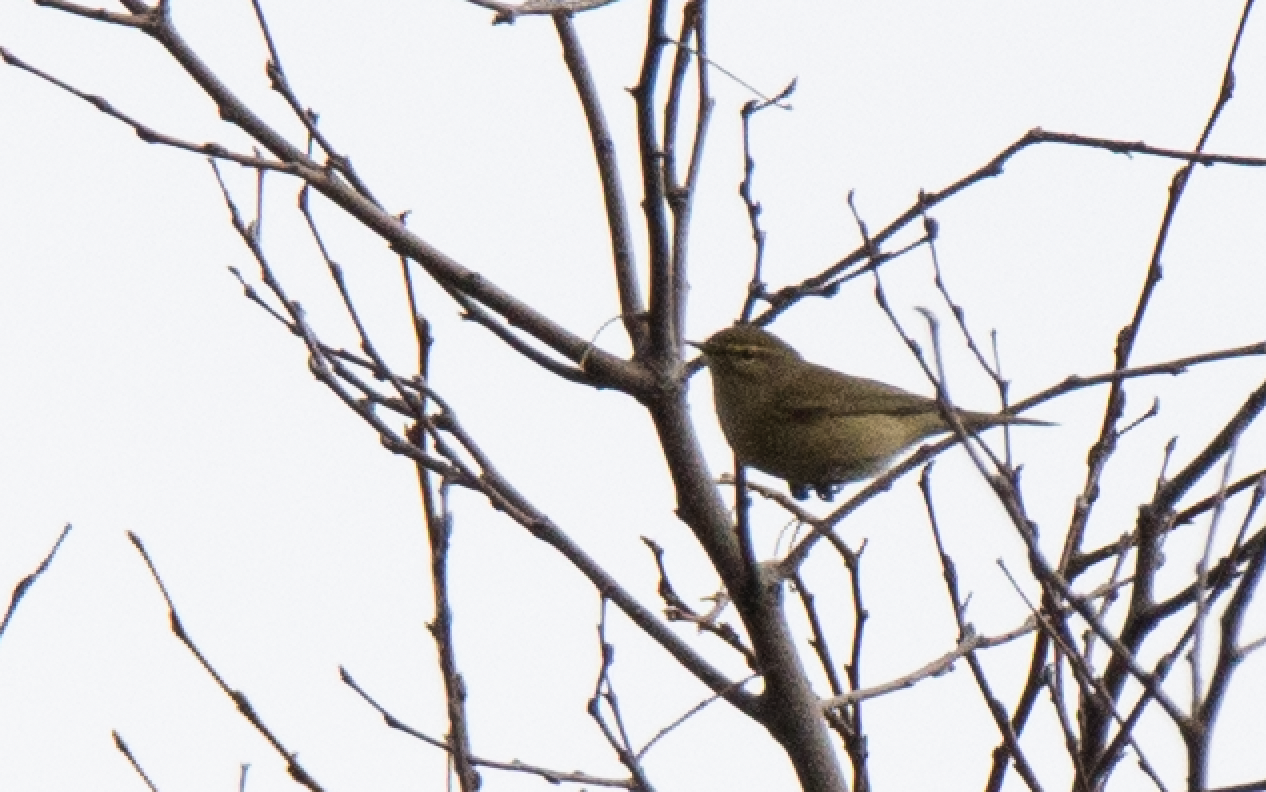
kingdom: Animalia
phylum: Chordata
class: Aves
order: Passeriformes
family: Phylloscopidae
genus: Phylloscopus
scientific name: Phylloscopus collybita
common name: Common chiffchaff
